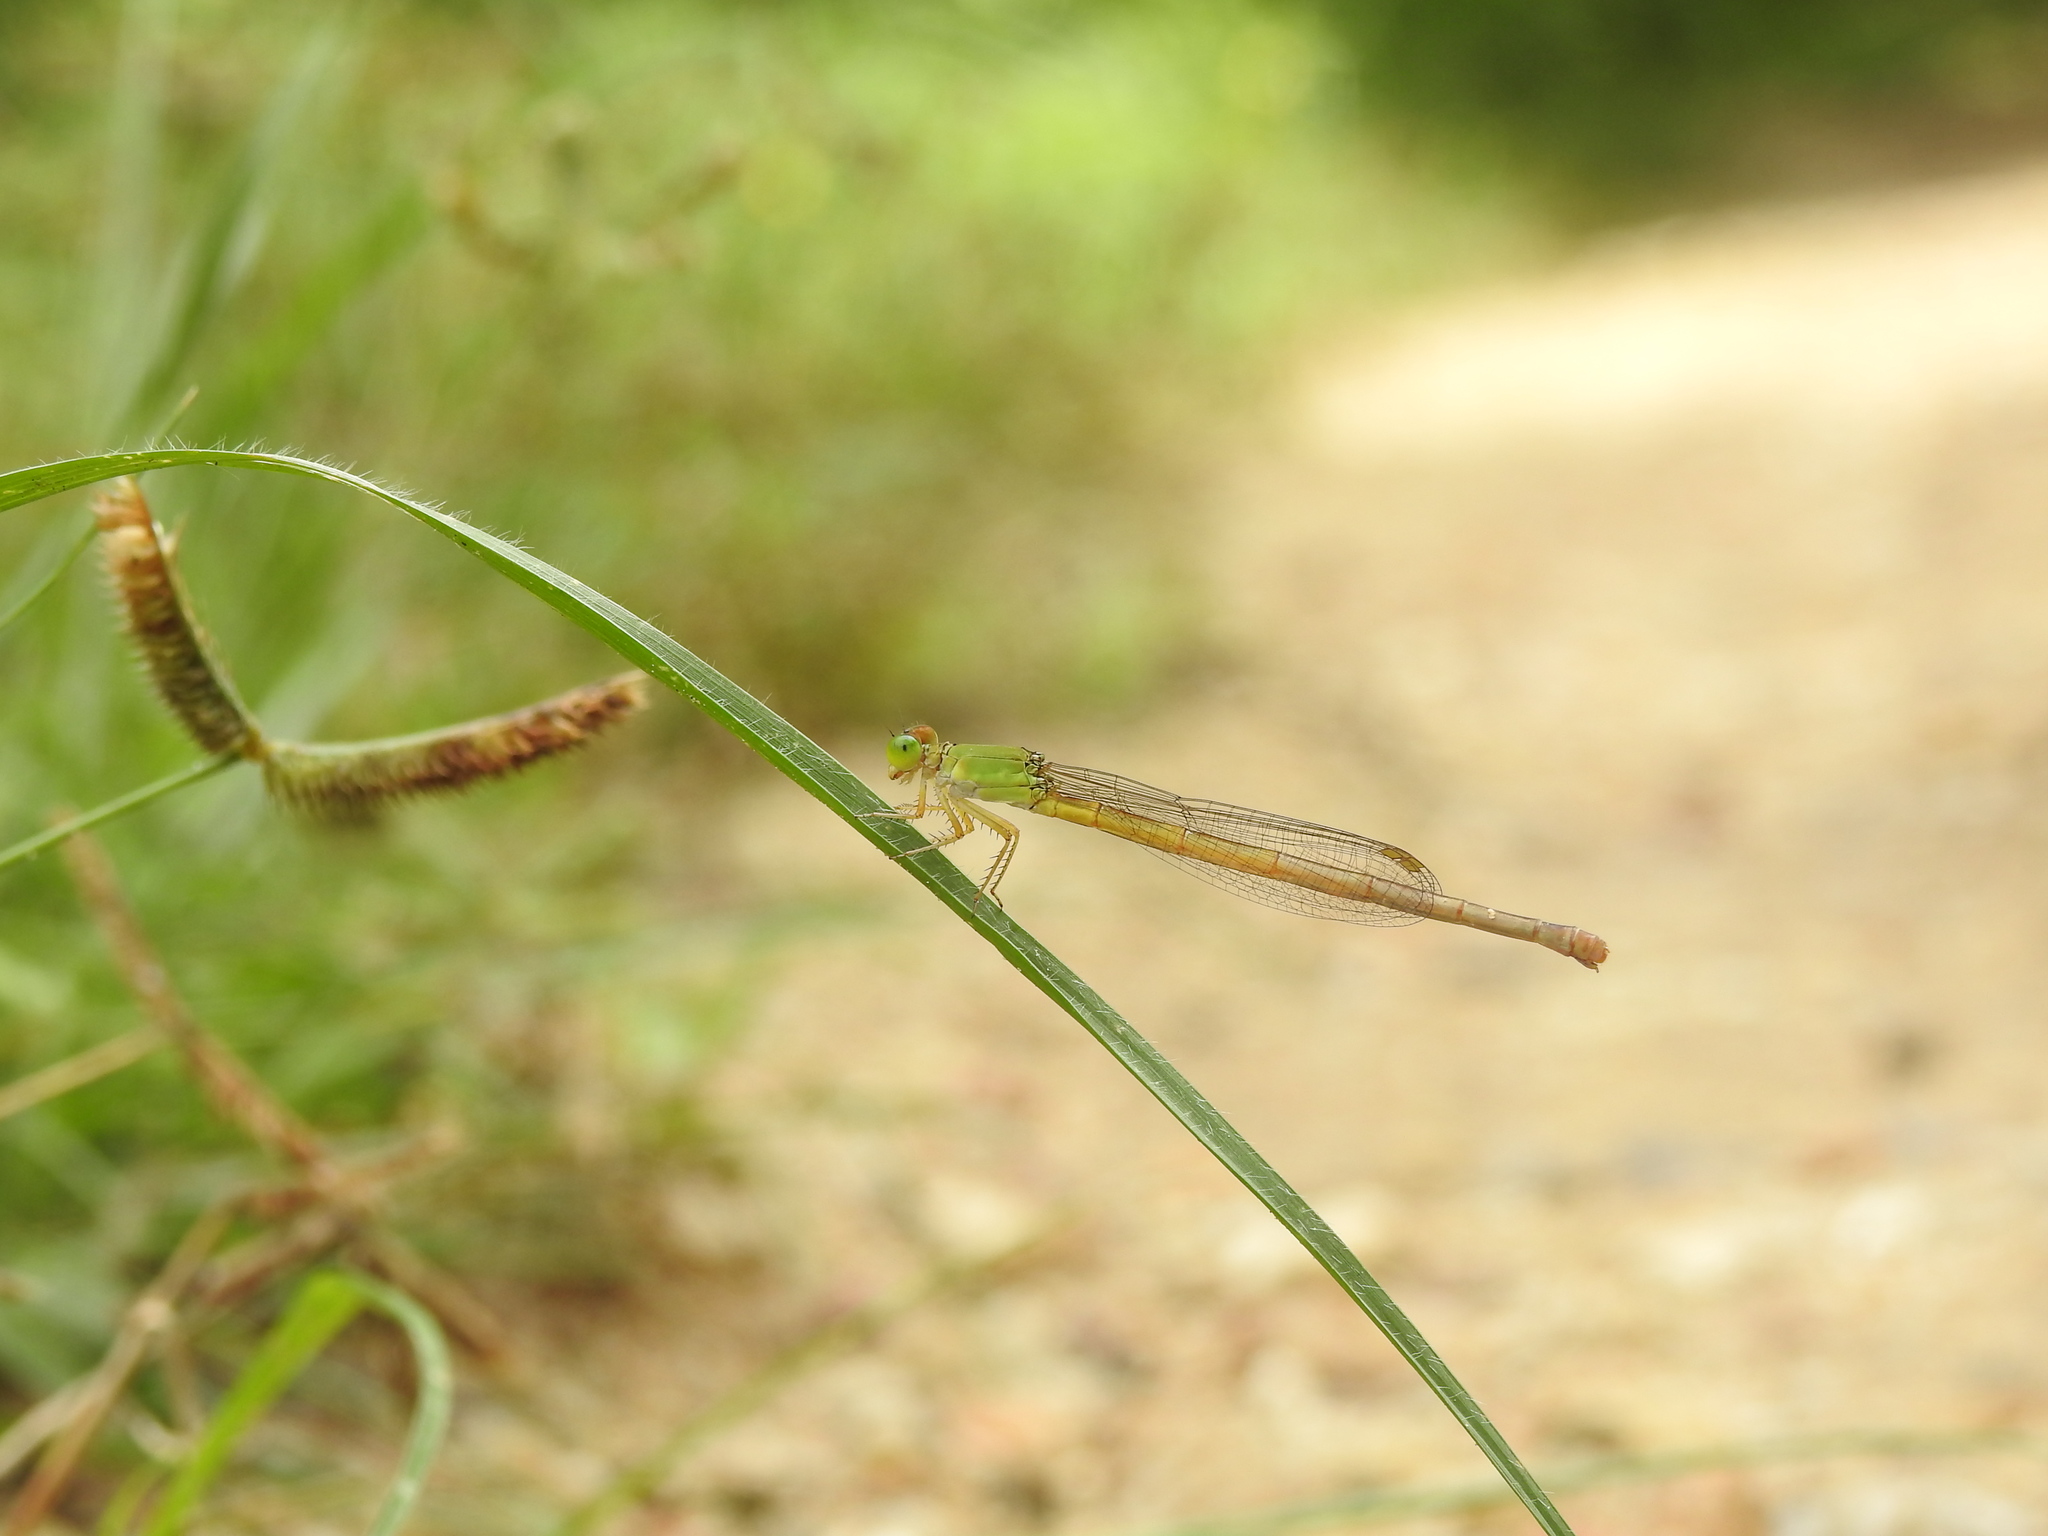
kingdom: Animalia
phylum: Arthropoda
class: Insecta
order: Odonata
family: Coenagrionidae
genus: Ceriagrion
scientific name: Ceriagrion coromandelianum
